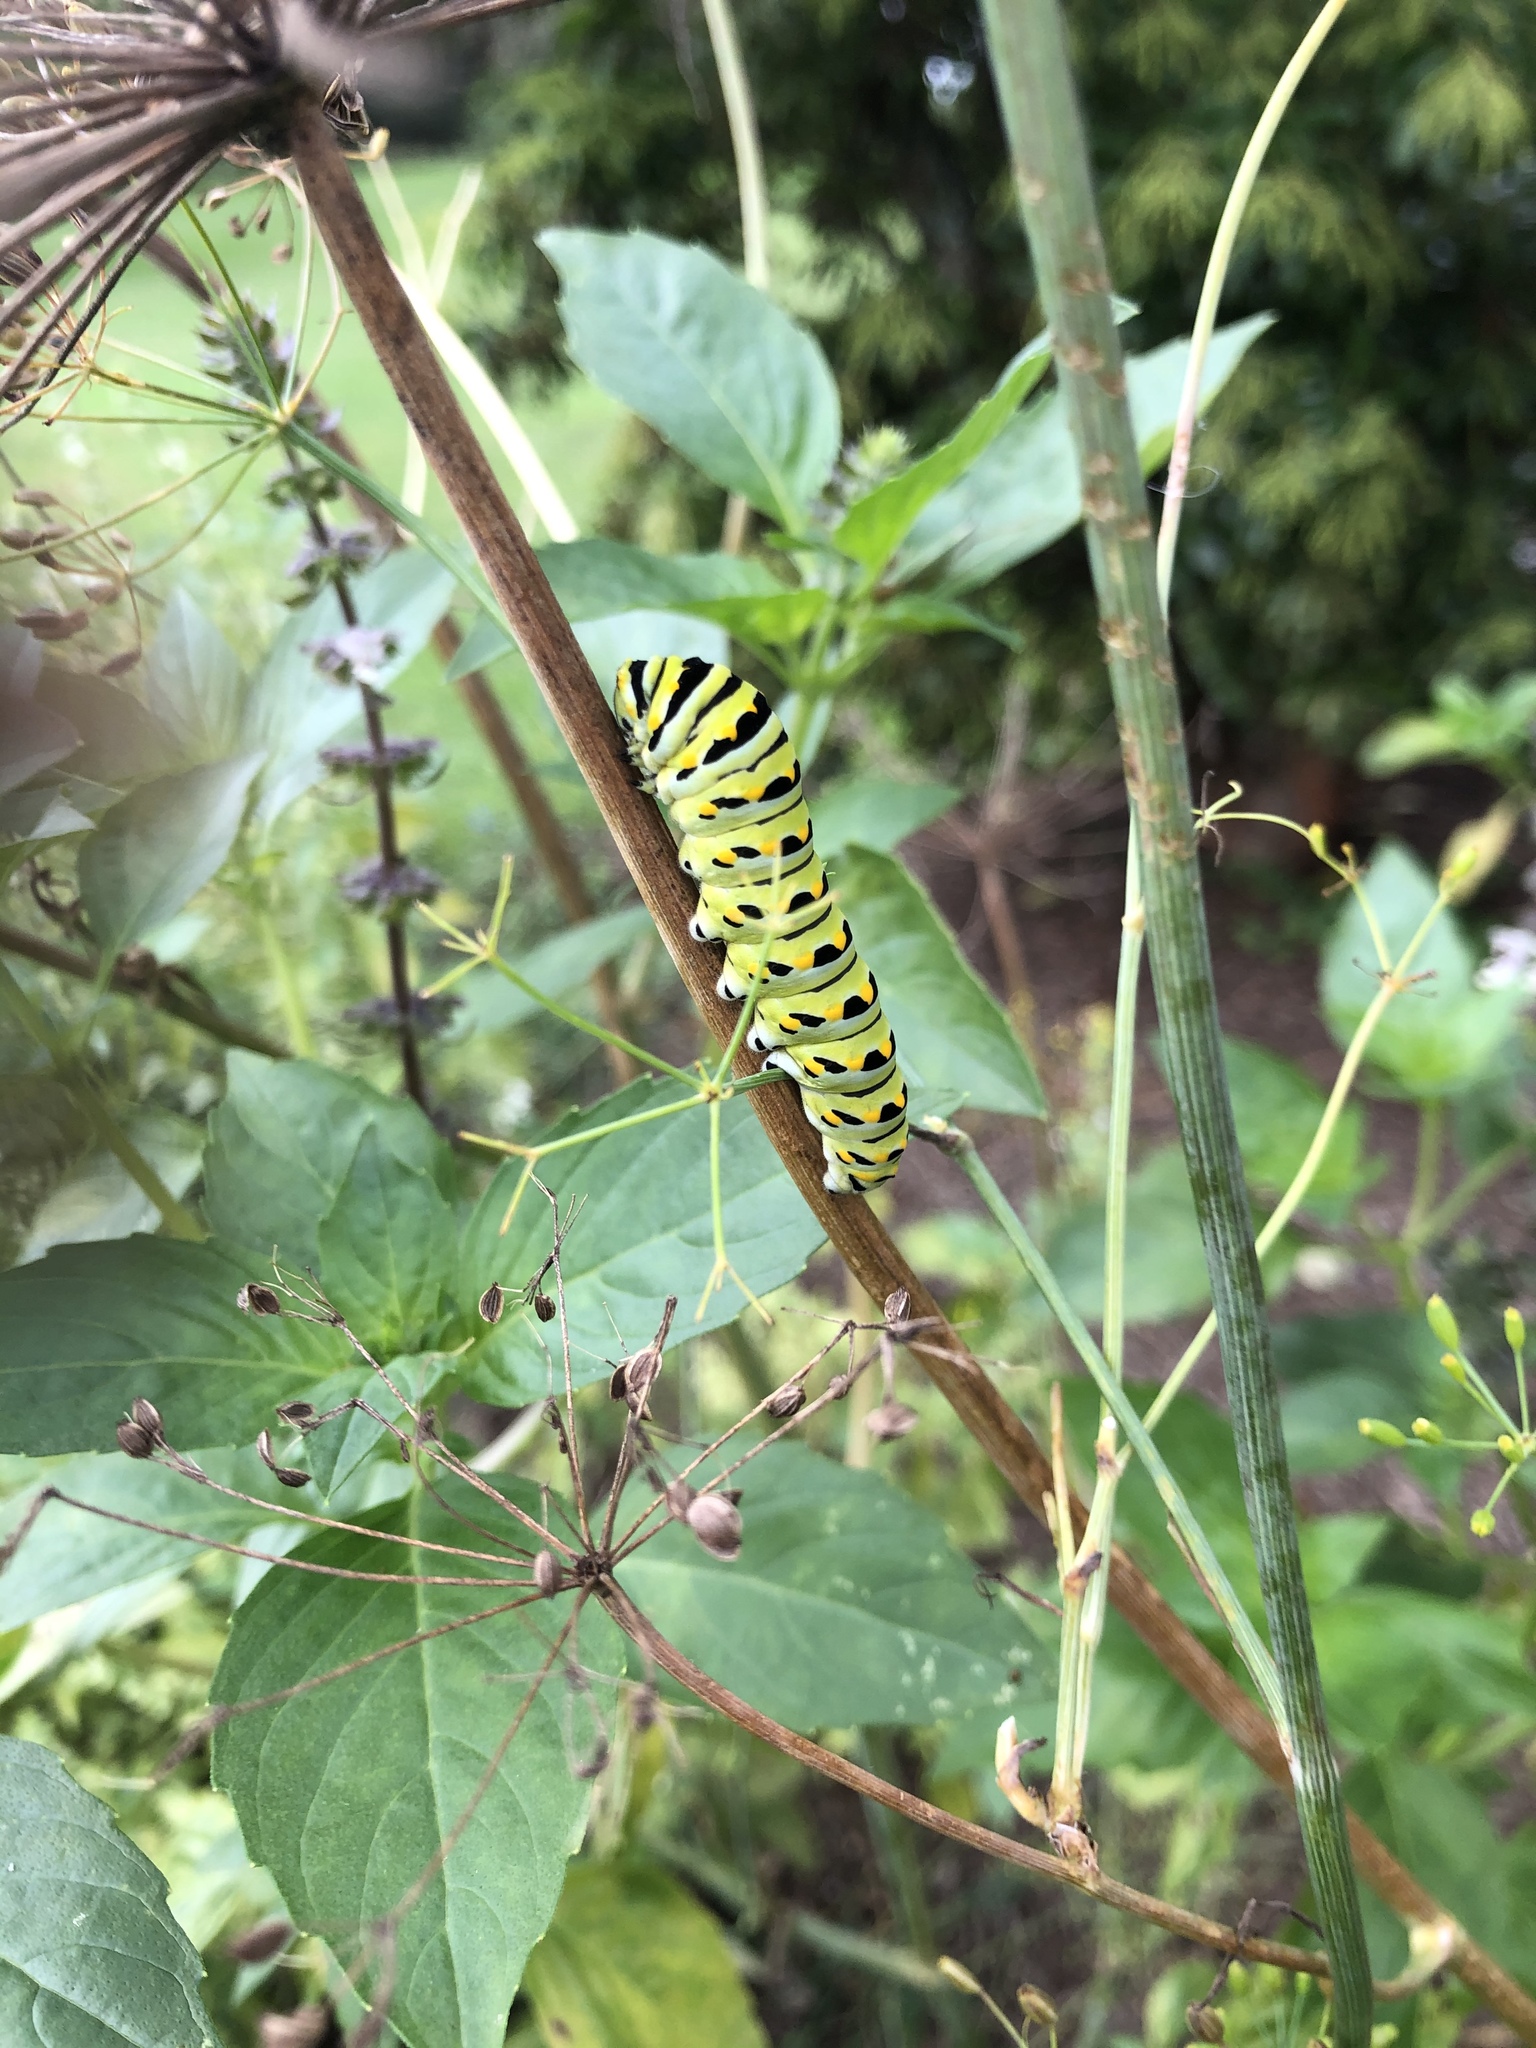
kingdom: Animalia
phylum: Arthropoda
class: Insecta
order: Lepidoptera
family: Papilionidae
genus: Papilio
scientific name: Papilio polyxenes
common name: Black swallowtail
